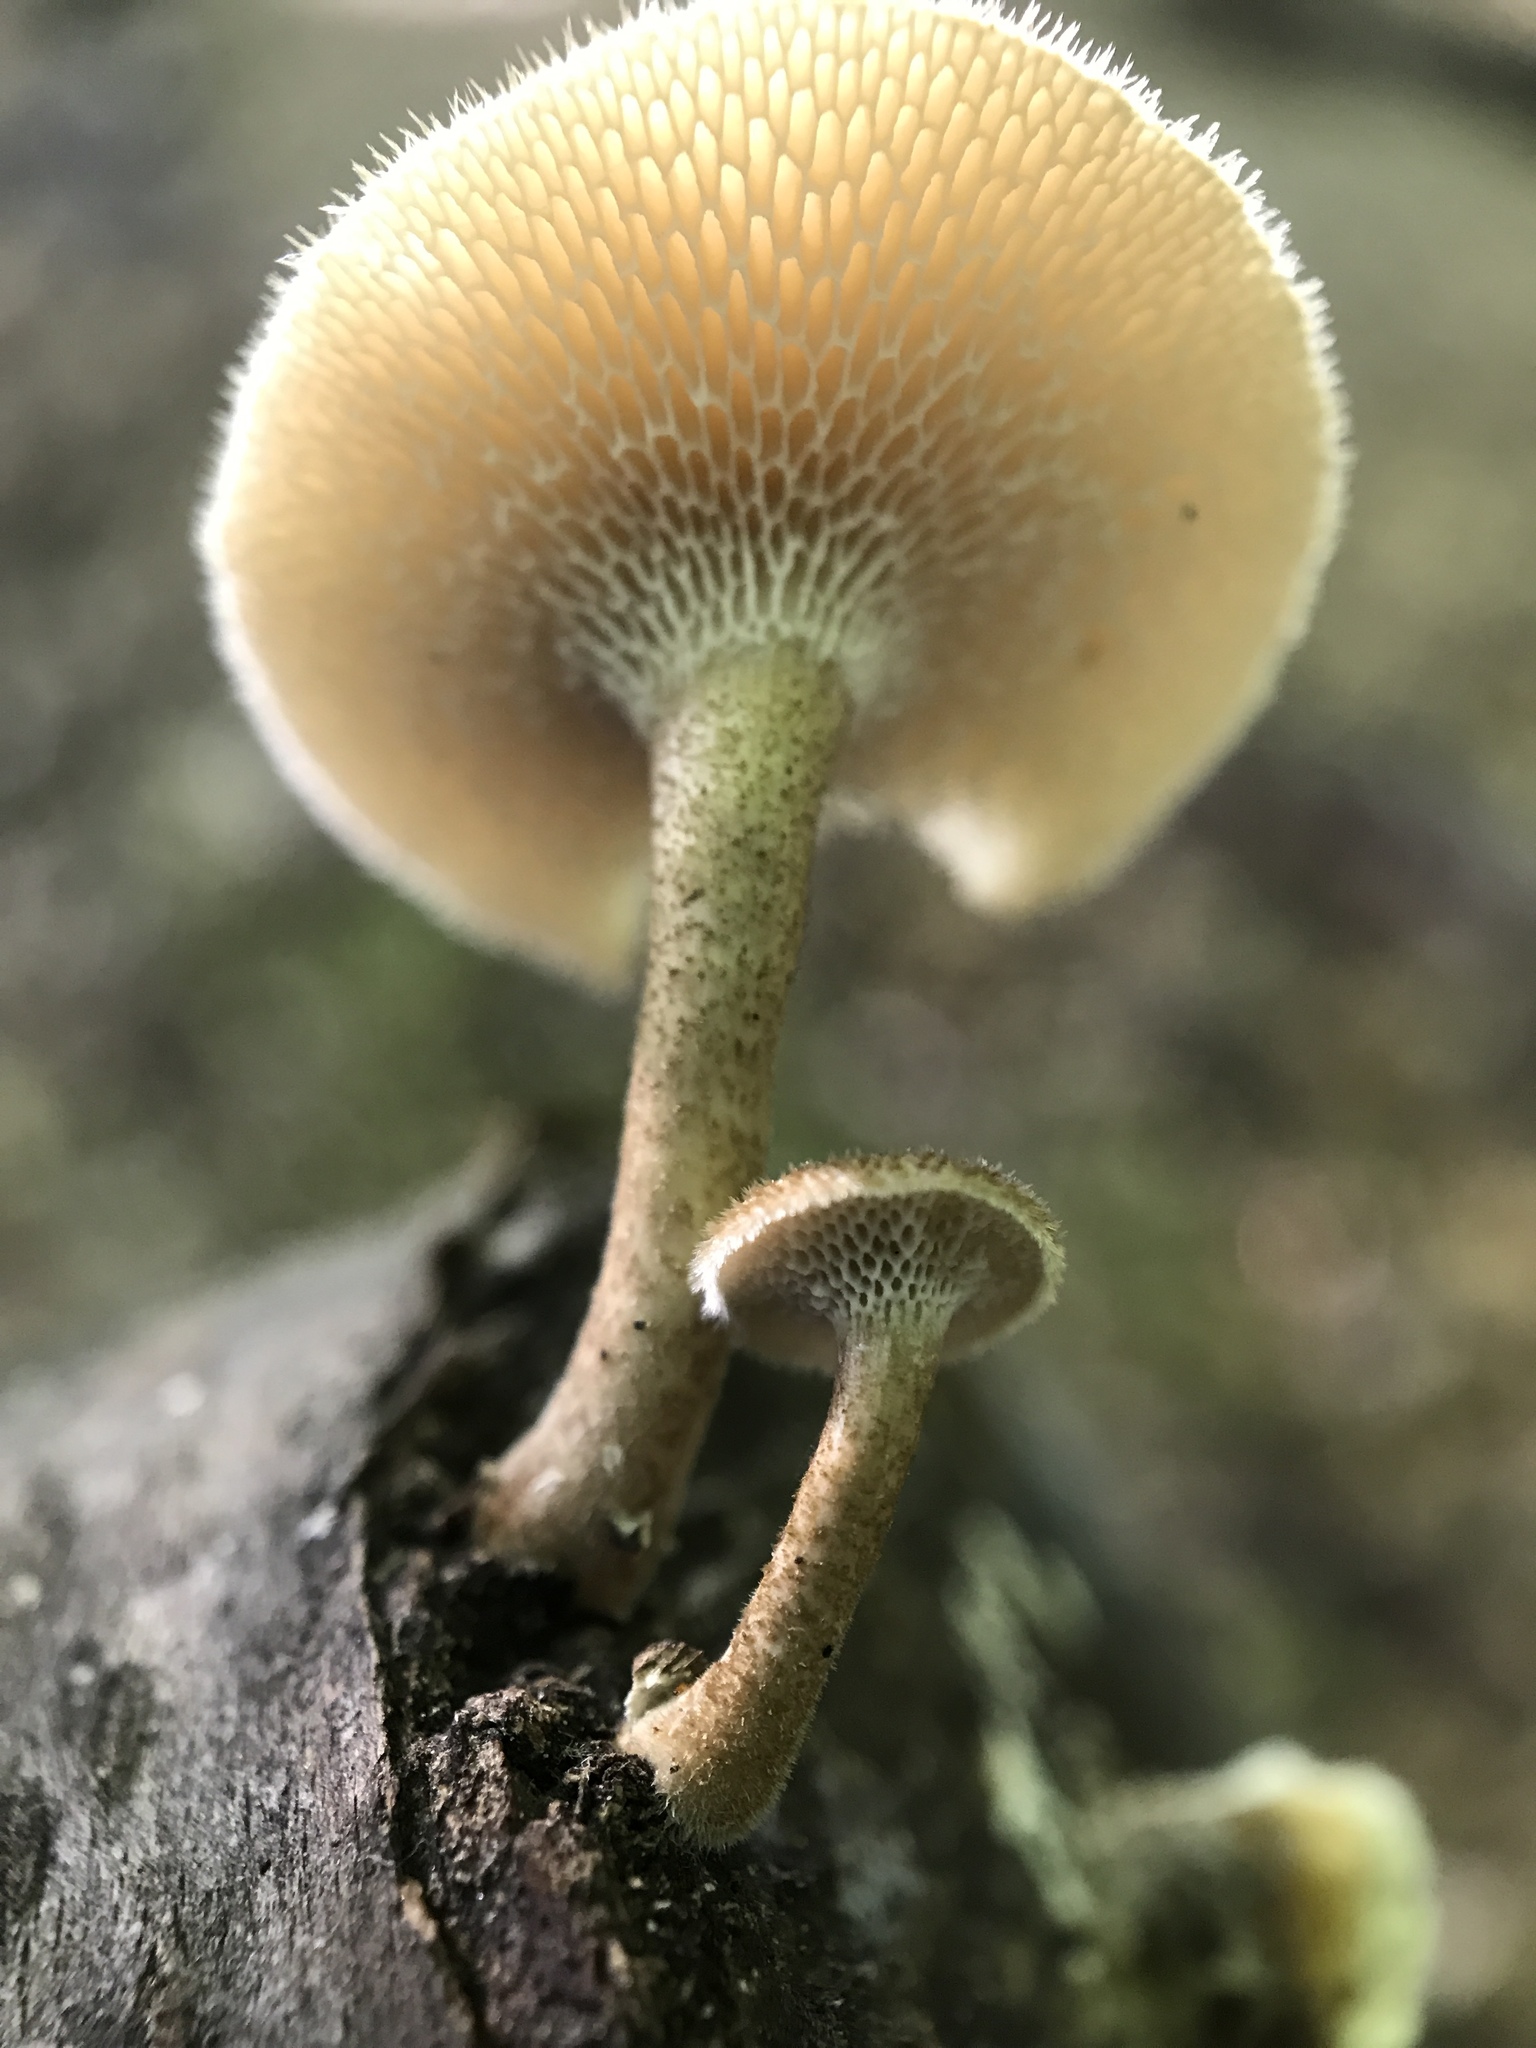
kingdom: Fungi
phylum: Basidiomycota
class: Agaricomycetes
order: Polyporales
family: Polyporaceae
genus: Lentinus
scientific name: Lentinus arcularius
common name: Spring polypore
